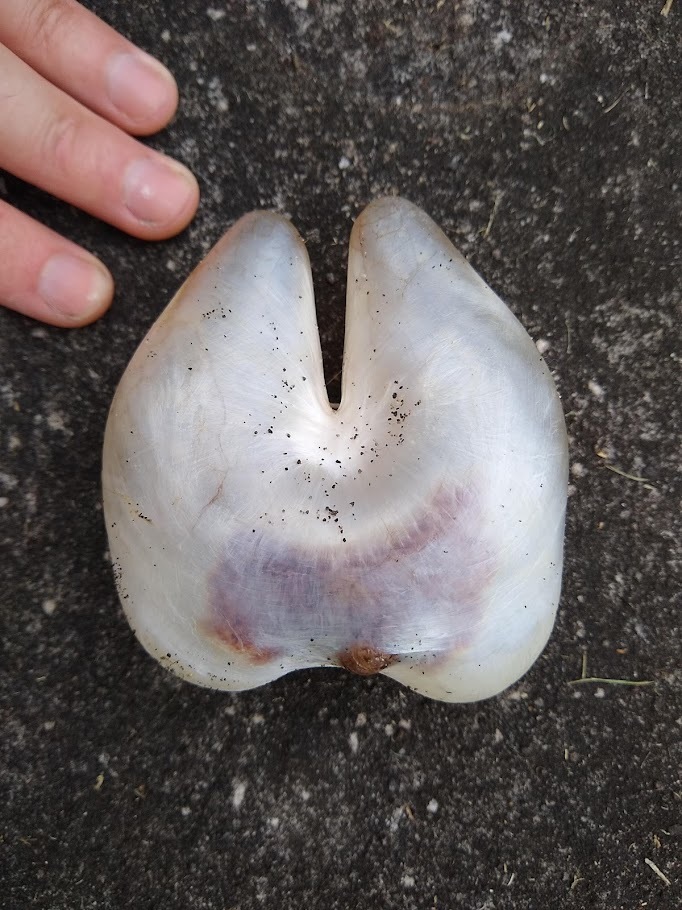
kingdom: Animalia
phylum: Chordata
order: Tetraodontiformes
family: Diodontidae
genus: Allomycterus
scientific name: Allomycterus pilatus
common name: No common name
